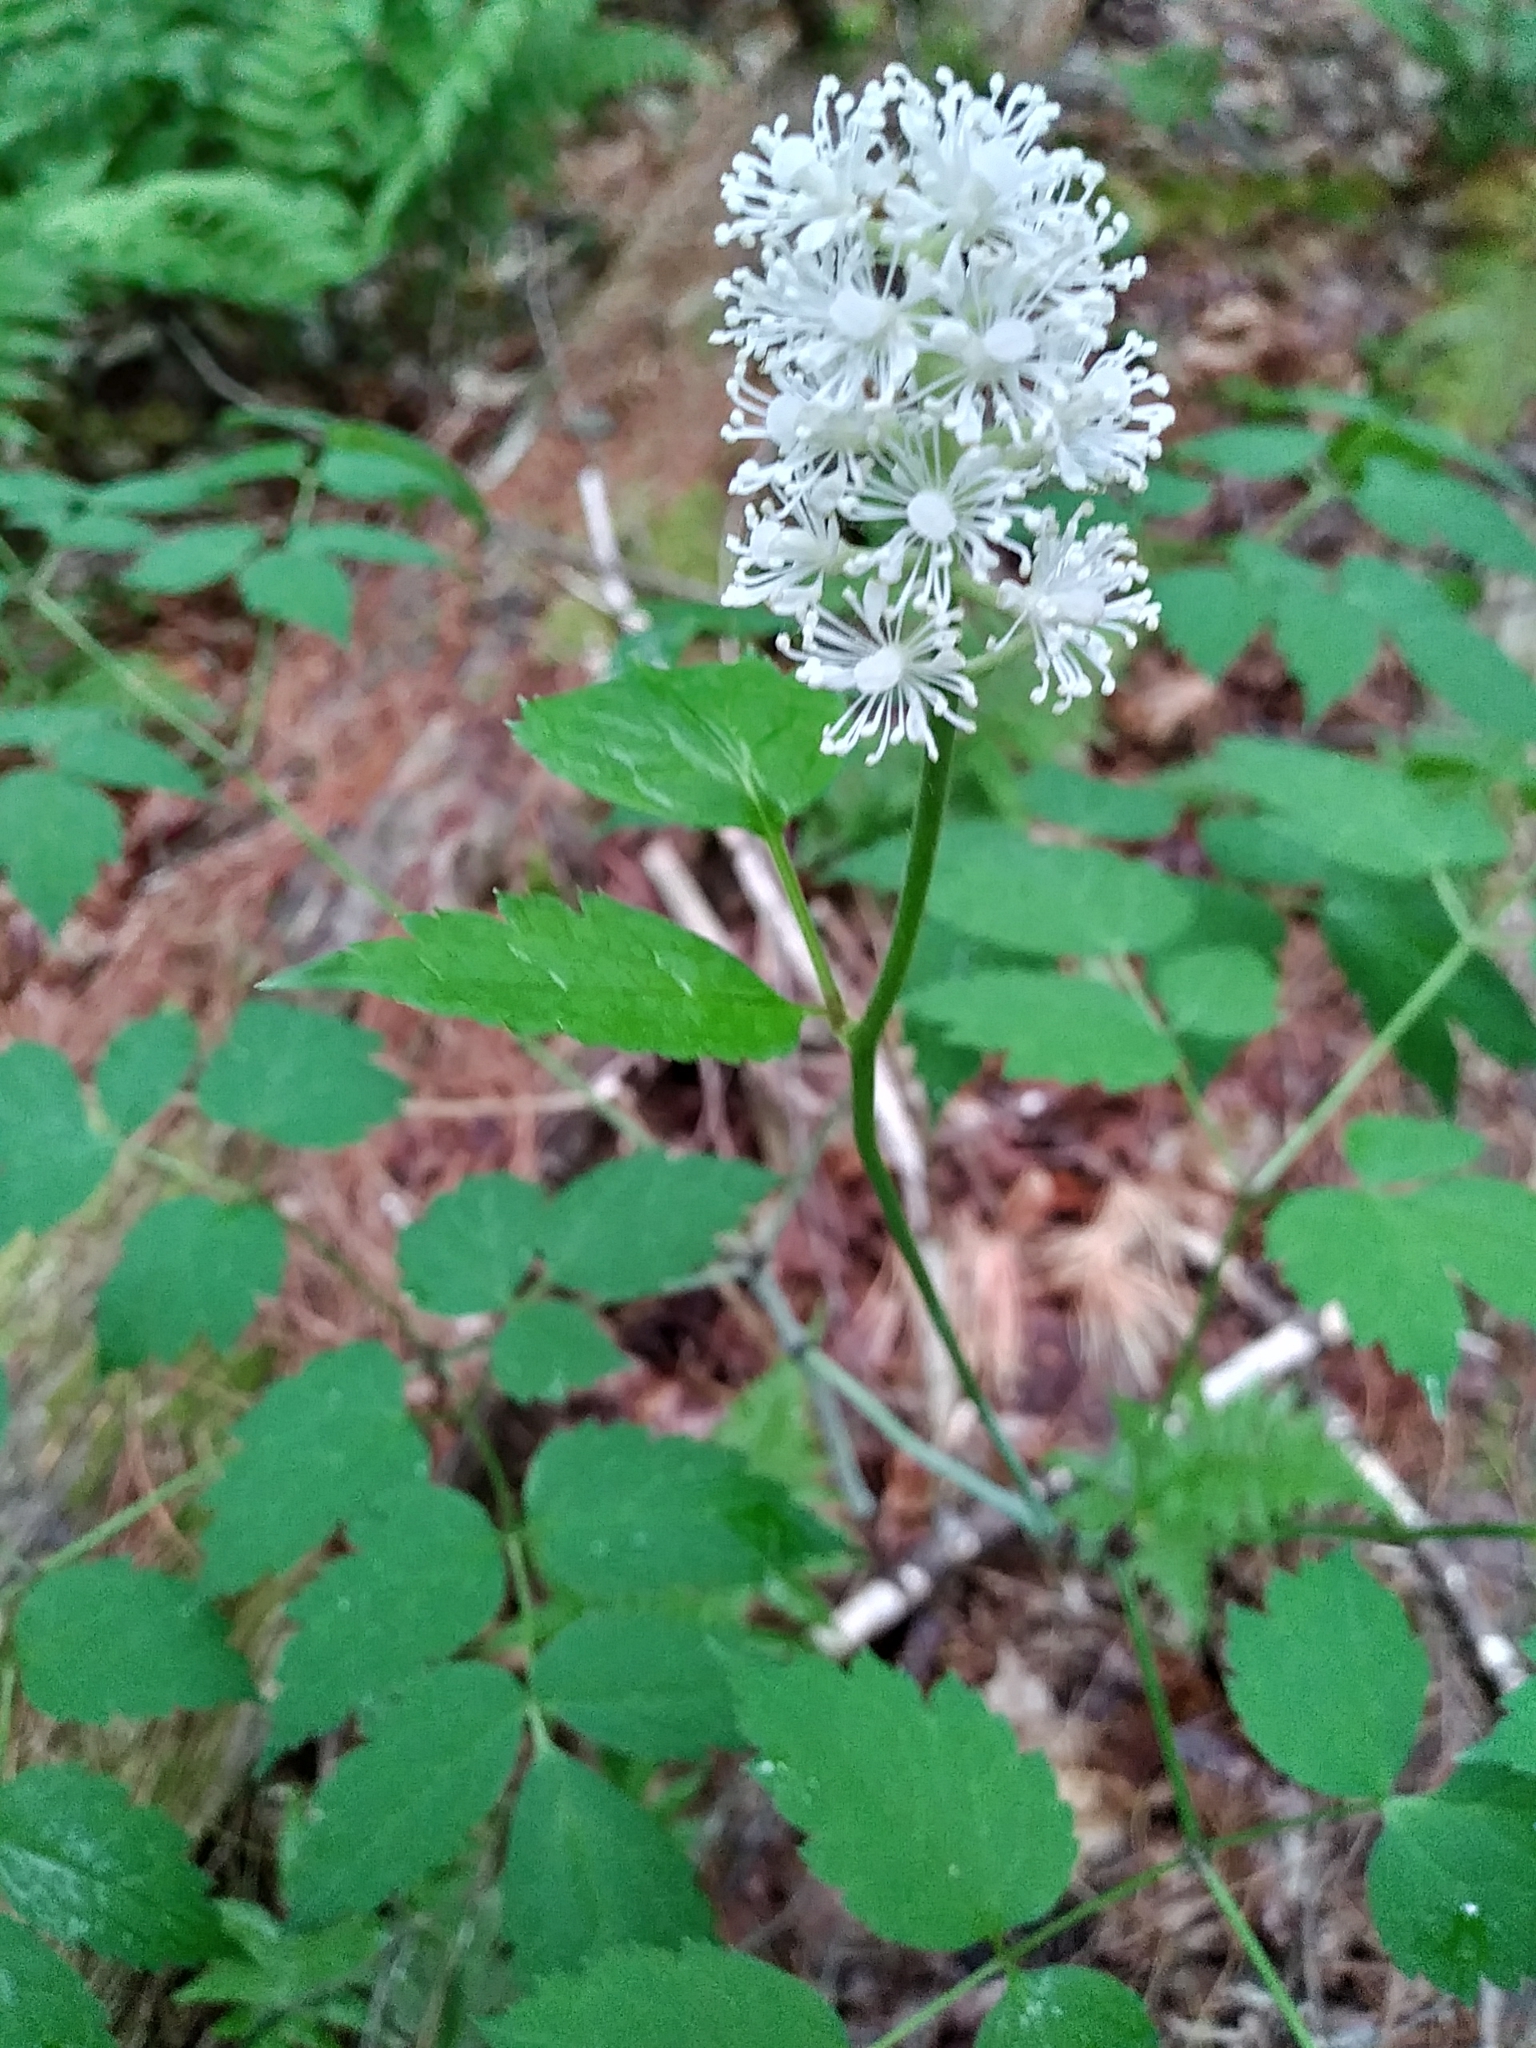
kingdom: Plantae
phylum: Tracheophyta
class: Magnoliopsida
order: Ranunculales
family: Ranunculaceae
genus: Actaea
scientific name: Actaea pachypoda
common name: Doll's-eyes
